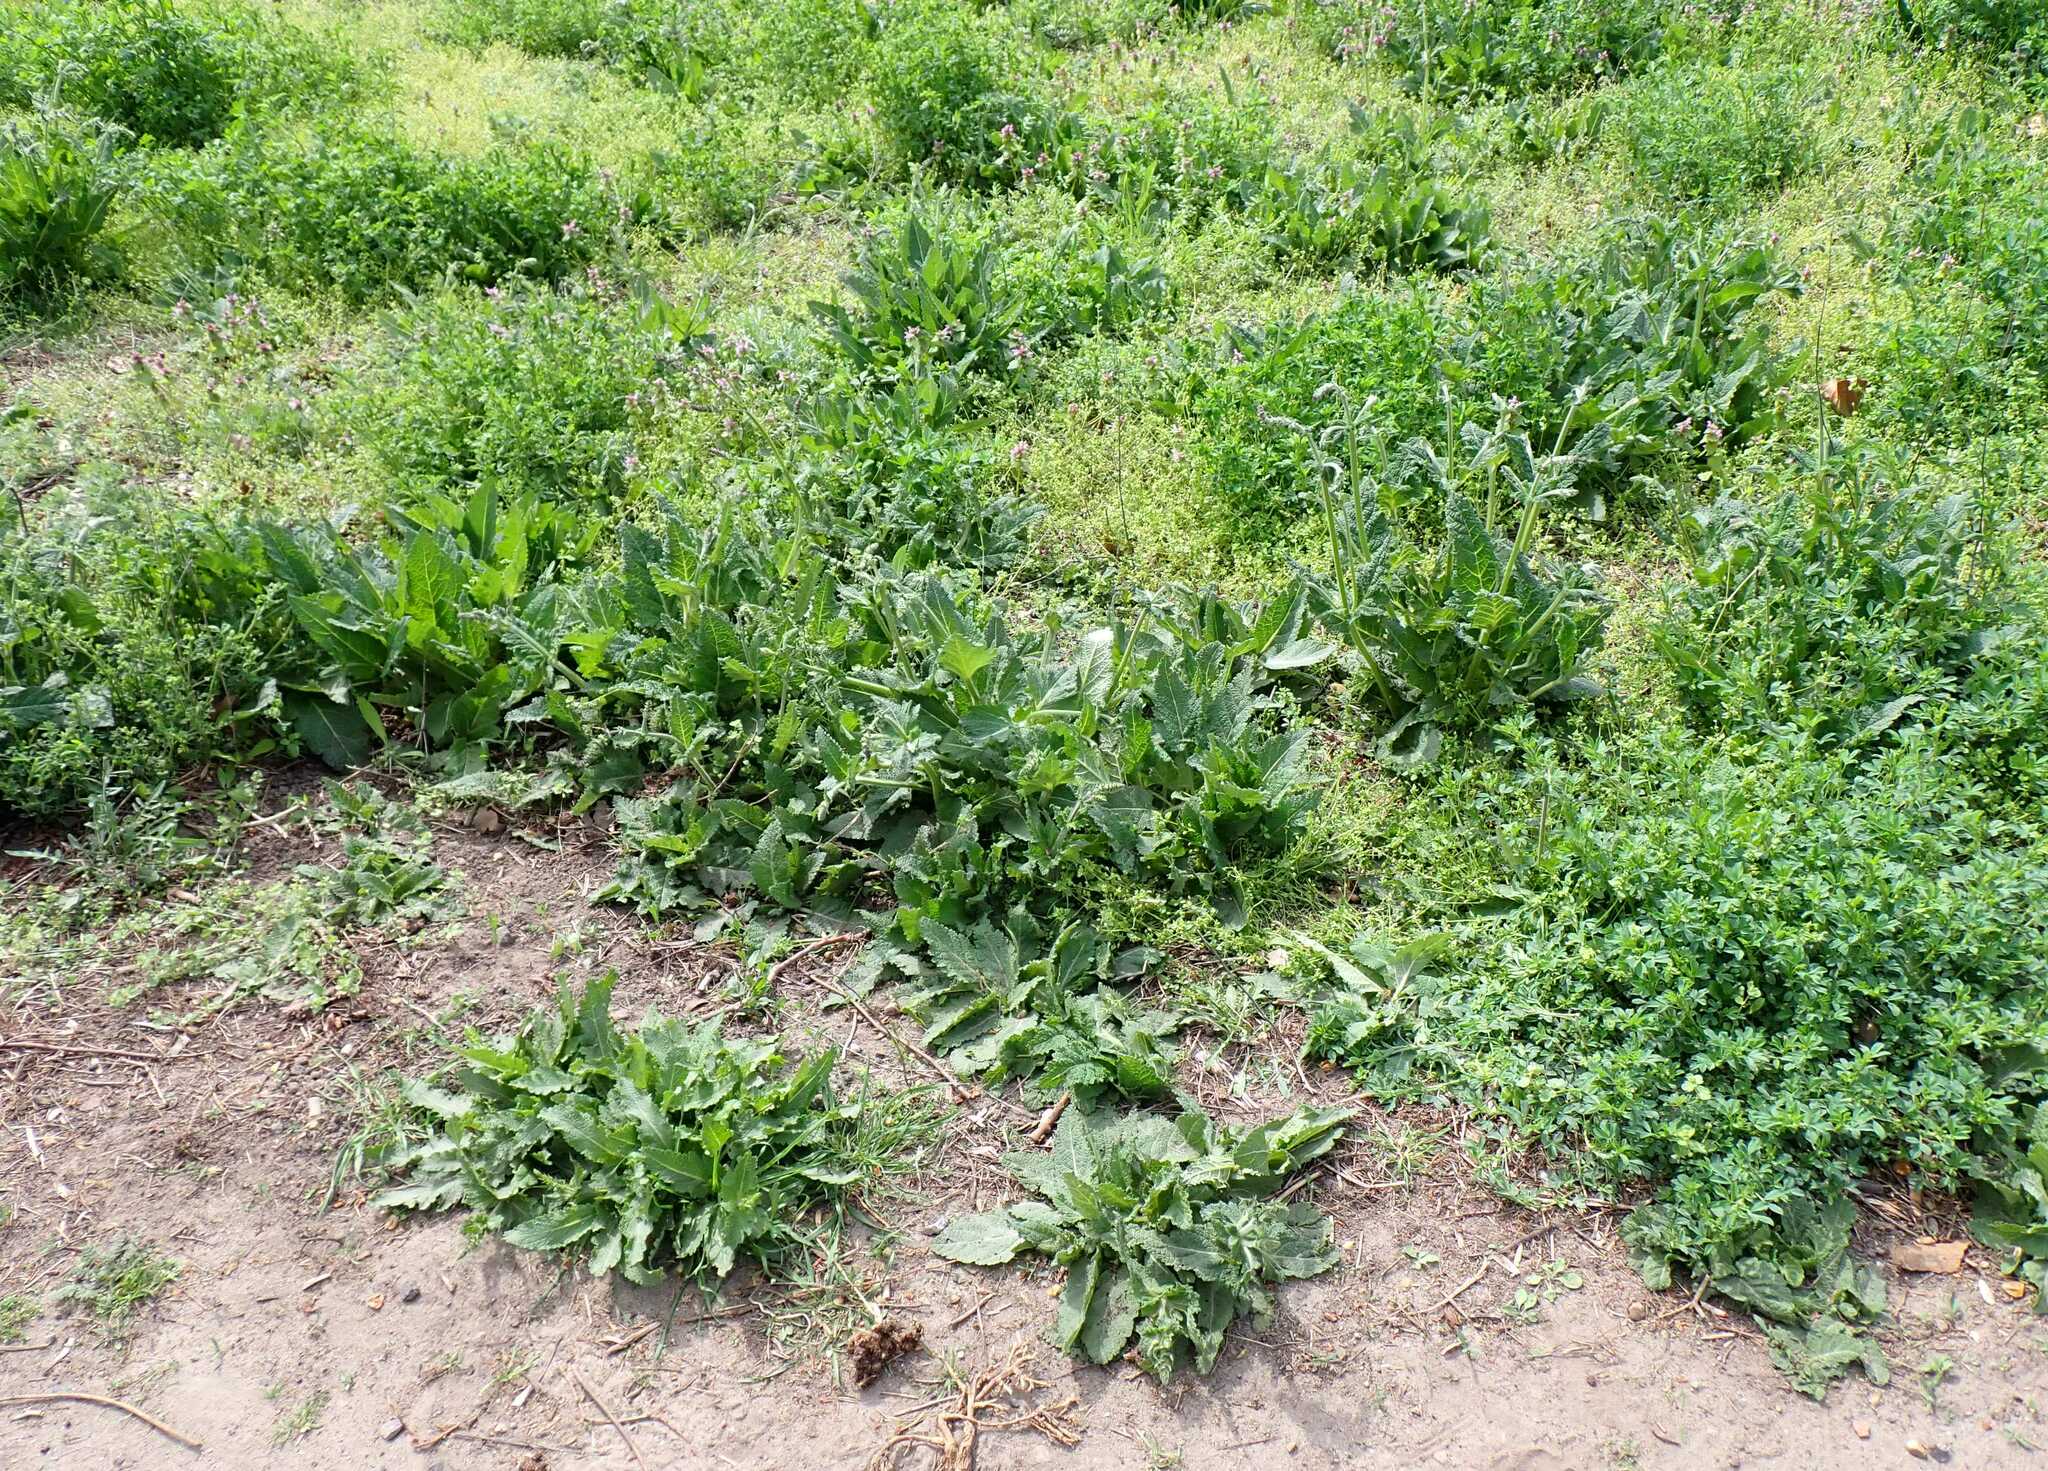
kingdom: Plantae
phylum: Tracheophyta
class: Magnoliopsida
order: Lamiales
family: Lamiaceae
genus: Salvia
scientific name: Salvia pratensis
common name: Meadow sage
